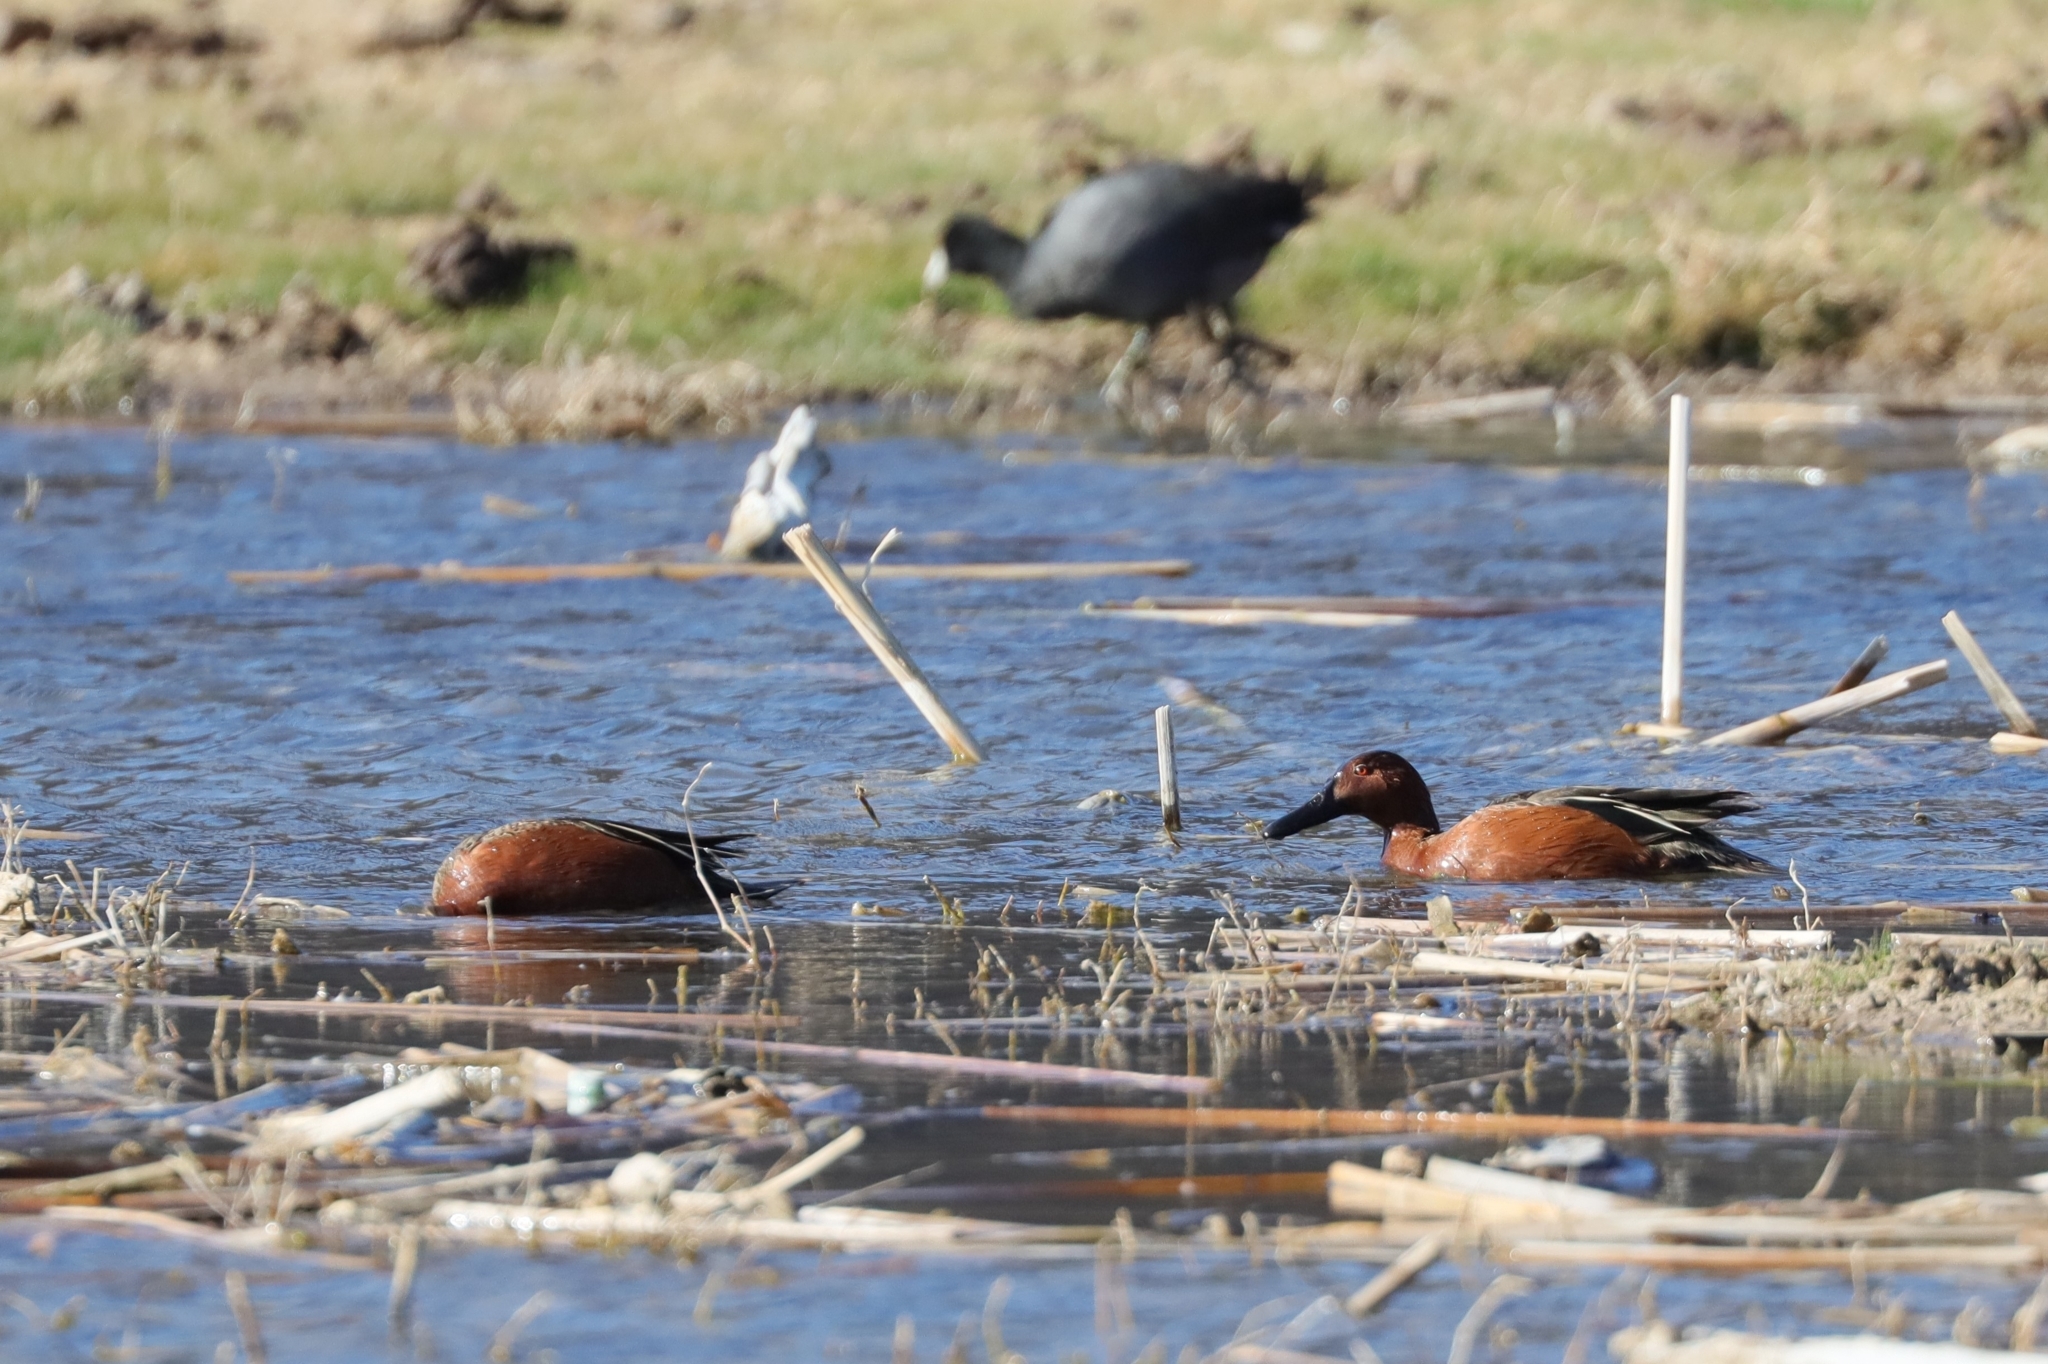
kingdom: Animalia
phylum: Chordata
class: Aves
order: Anseriformes
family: Anatidae
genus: Spatula
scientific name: Spatula cyanoptera
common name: Cinnamon teal
